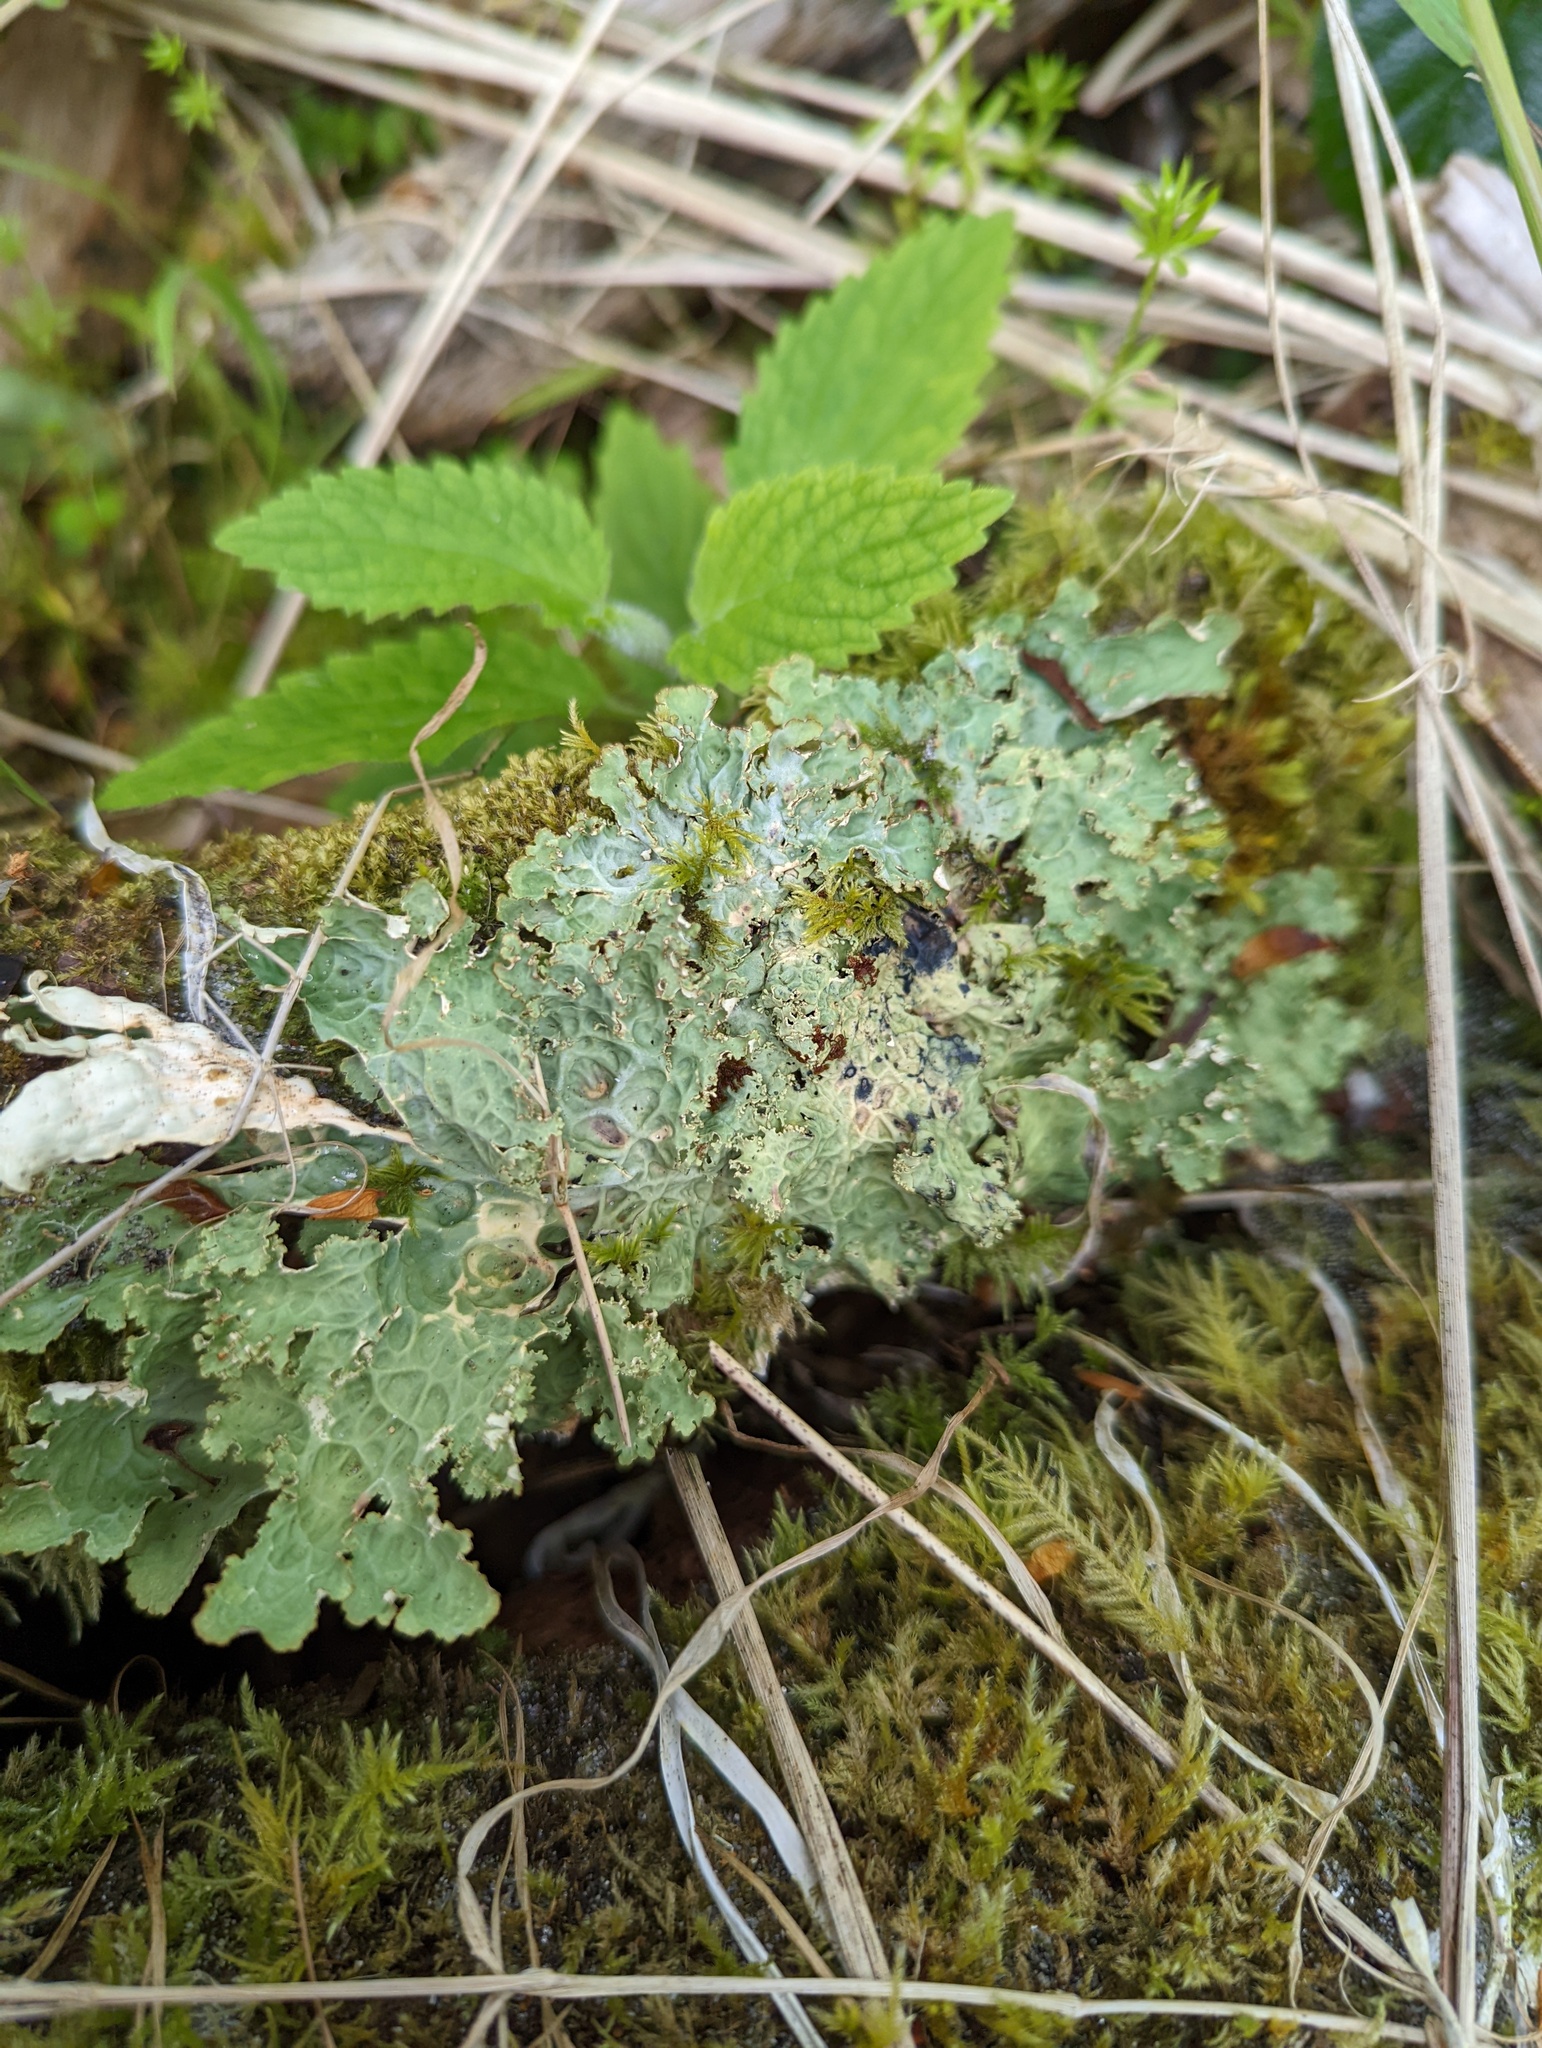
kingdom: Fungi
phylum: Ascomycota
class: Lecanoromycetes
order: Peltigerales
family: Lobariaceae
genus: Lobaria
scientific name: Lobaria oregana
